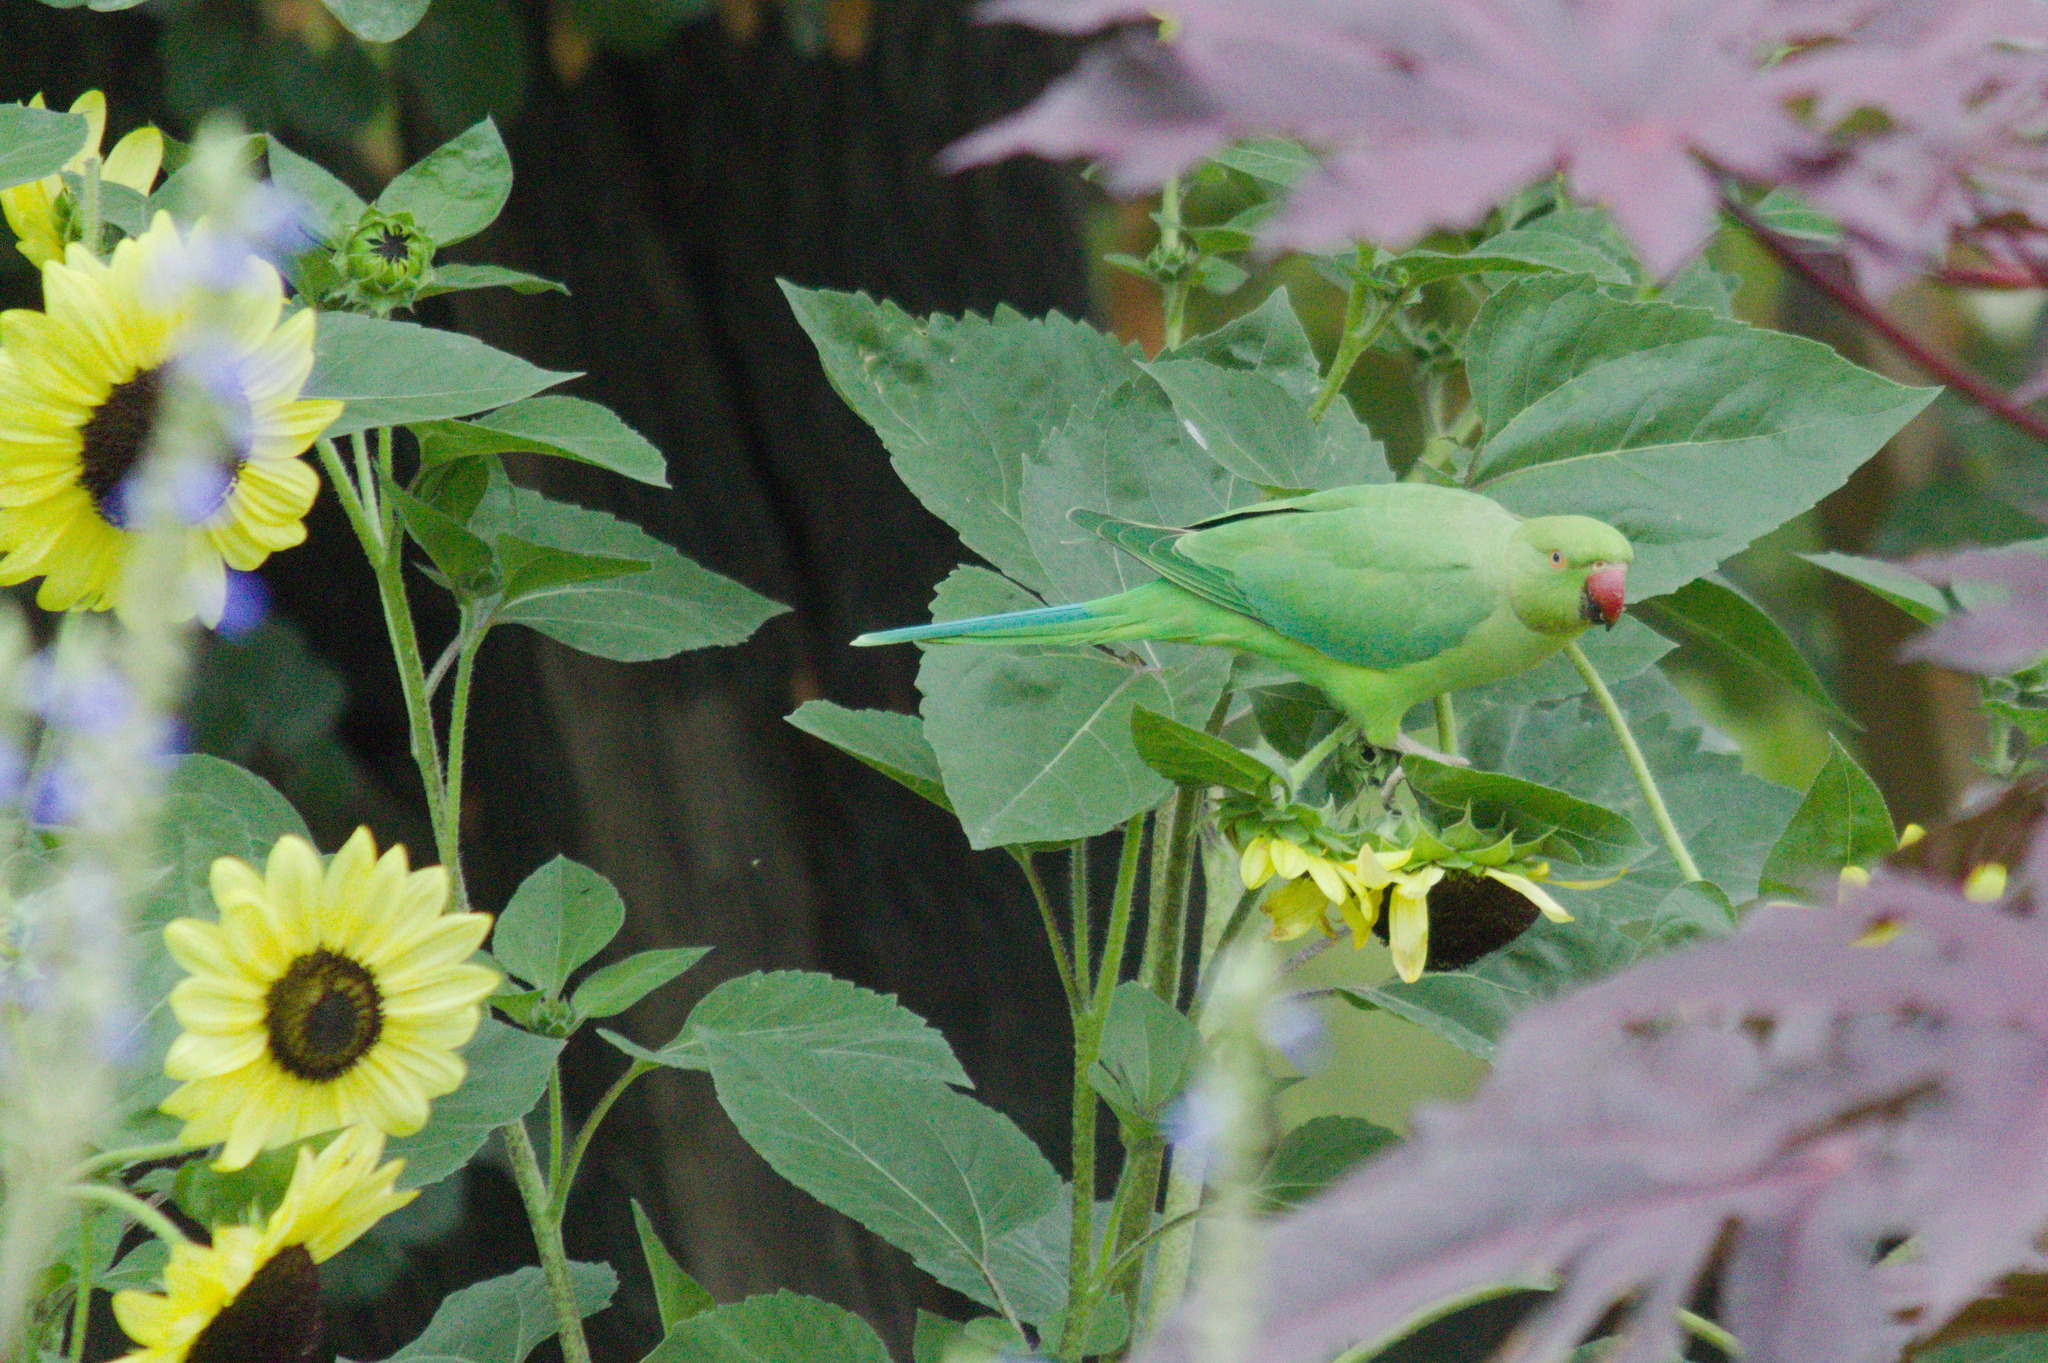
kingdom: Animalia
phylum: Chordata
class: Aves
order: Psittaciformes
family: Psittacidae
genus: Psittacula
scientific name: Psittacula krameri
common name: Rose-ringed parakeet
